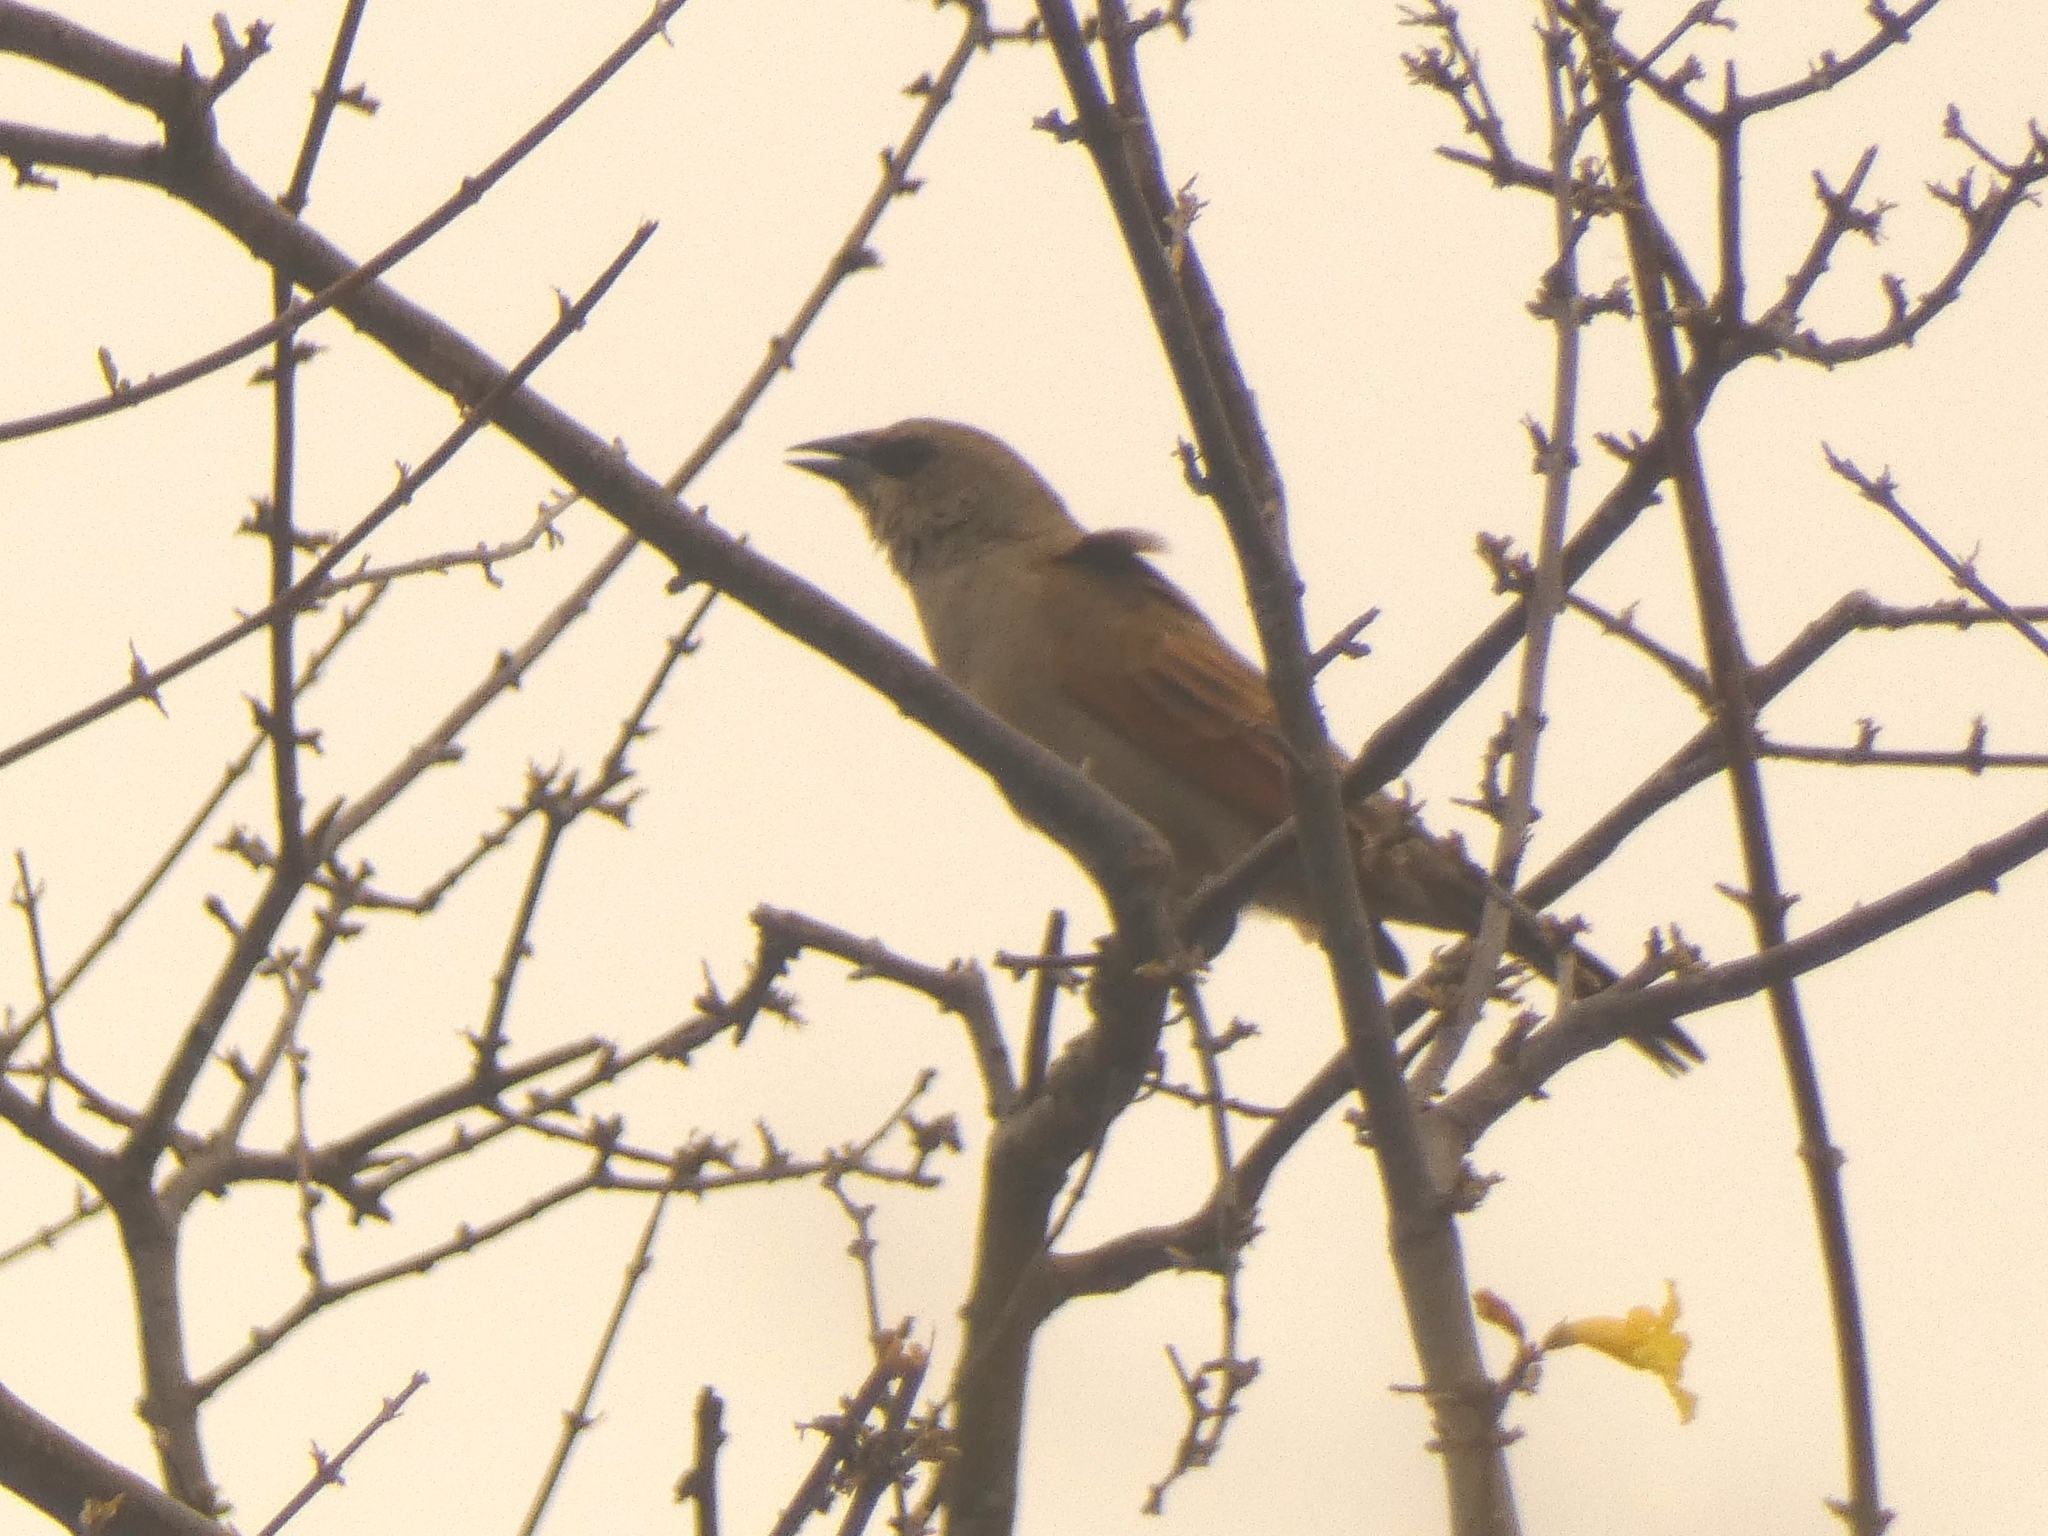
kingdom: Animalia
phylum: Chordata
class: Aves
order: Passeriformes
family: Icteridae
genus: Agelaioides
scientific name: Agelaioides badius
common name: Baywing
